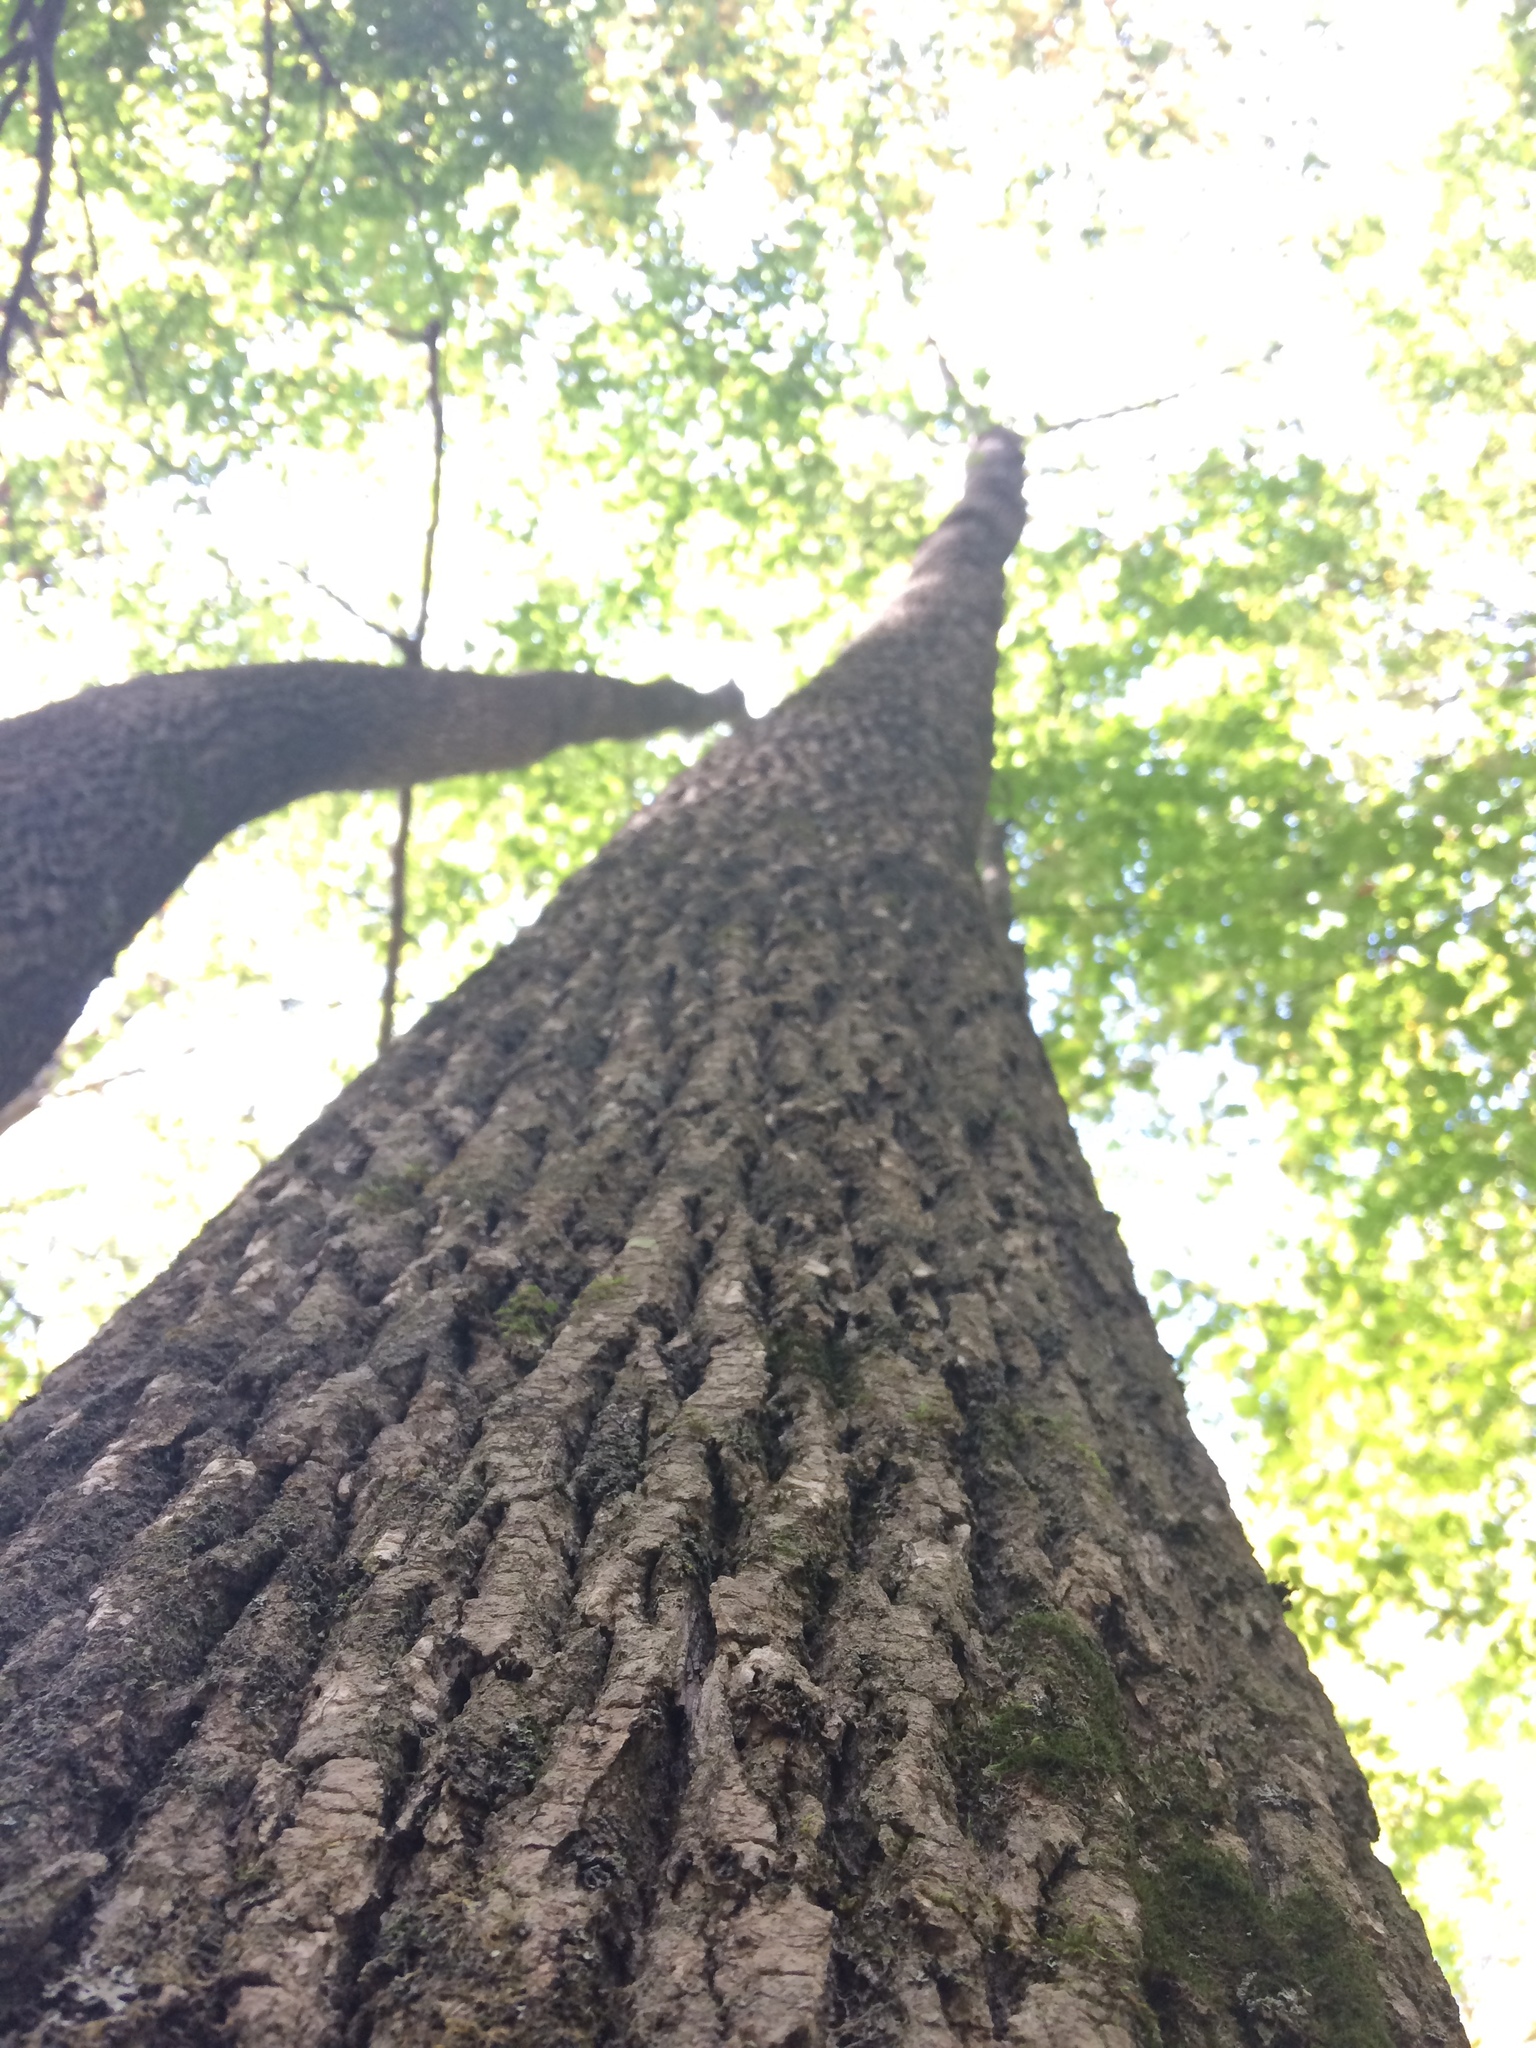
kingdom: Plantae
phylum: Tracheophyta
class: Magnoliopsida
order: Lamiales
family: Oleaceae
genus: Fraxinus
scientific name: Fraxinus americana
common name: White ash
